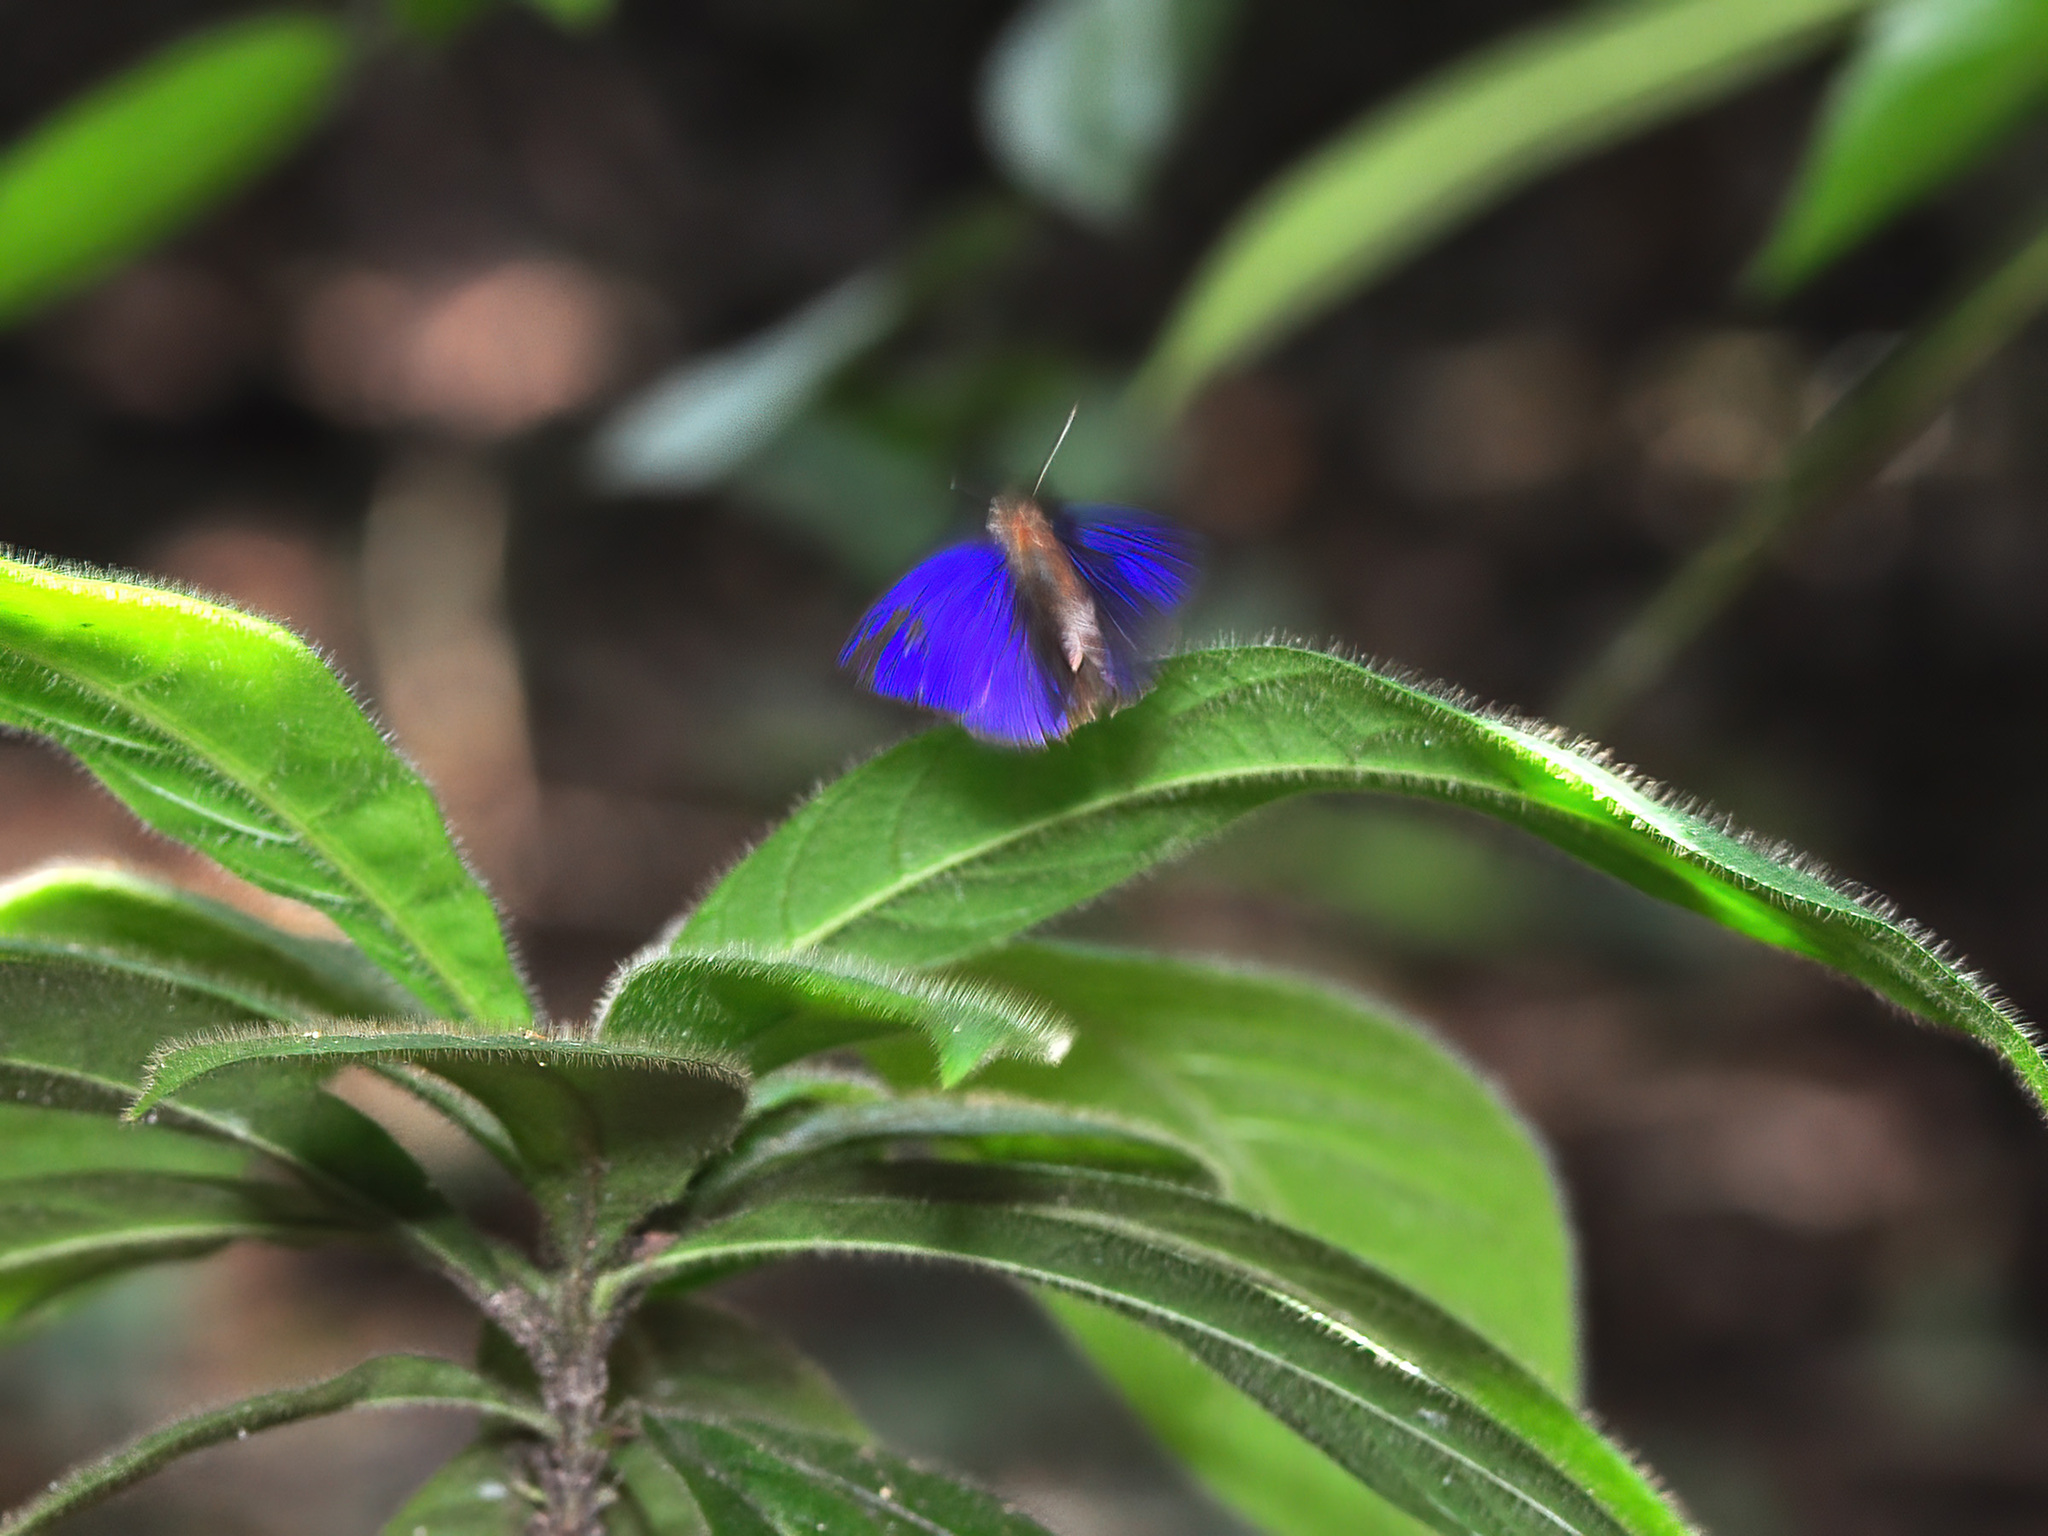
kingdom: Animalia
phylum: Arthropoda
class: Insecta
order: Lepidoptera
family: Lycaenidae
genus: Flos
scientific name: Flos
